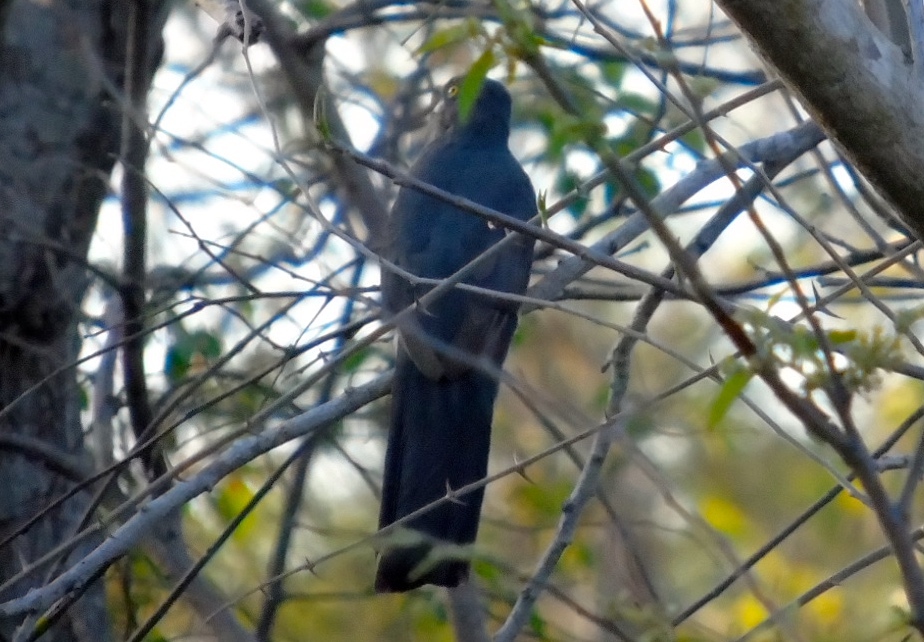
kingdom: Animalia
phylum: Chordata
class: Aves
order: Trogoniformes
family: Trogonidae
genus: Trogon
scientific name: Trogon citreolus
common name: Citreoline trogon
